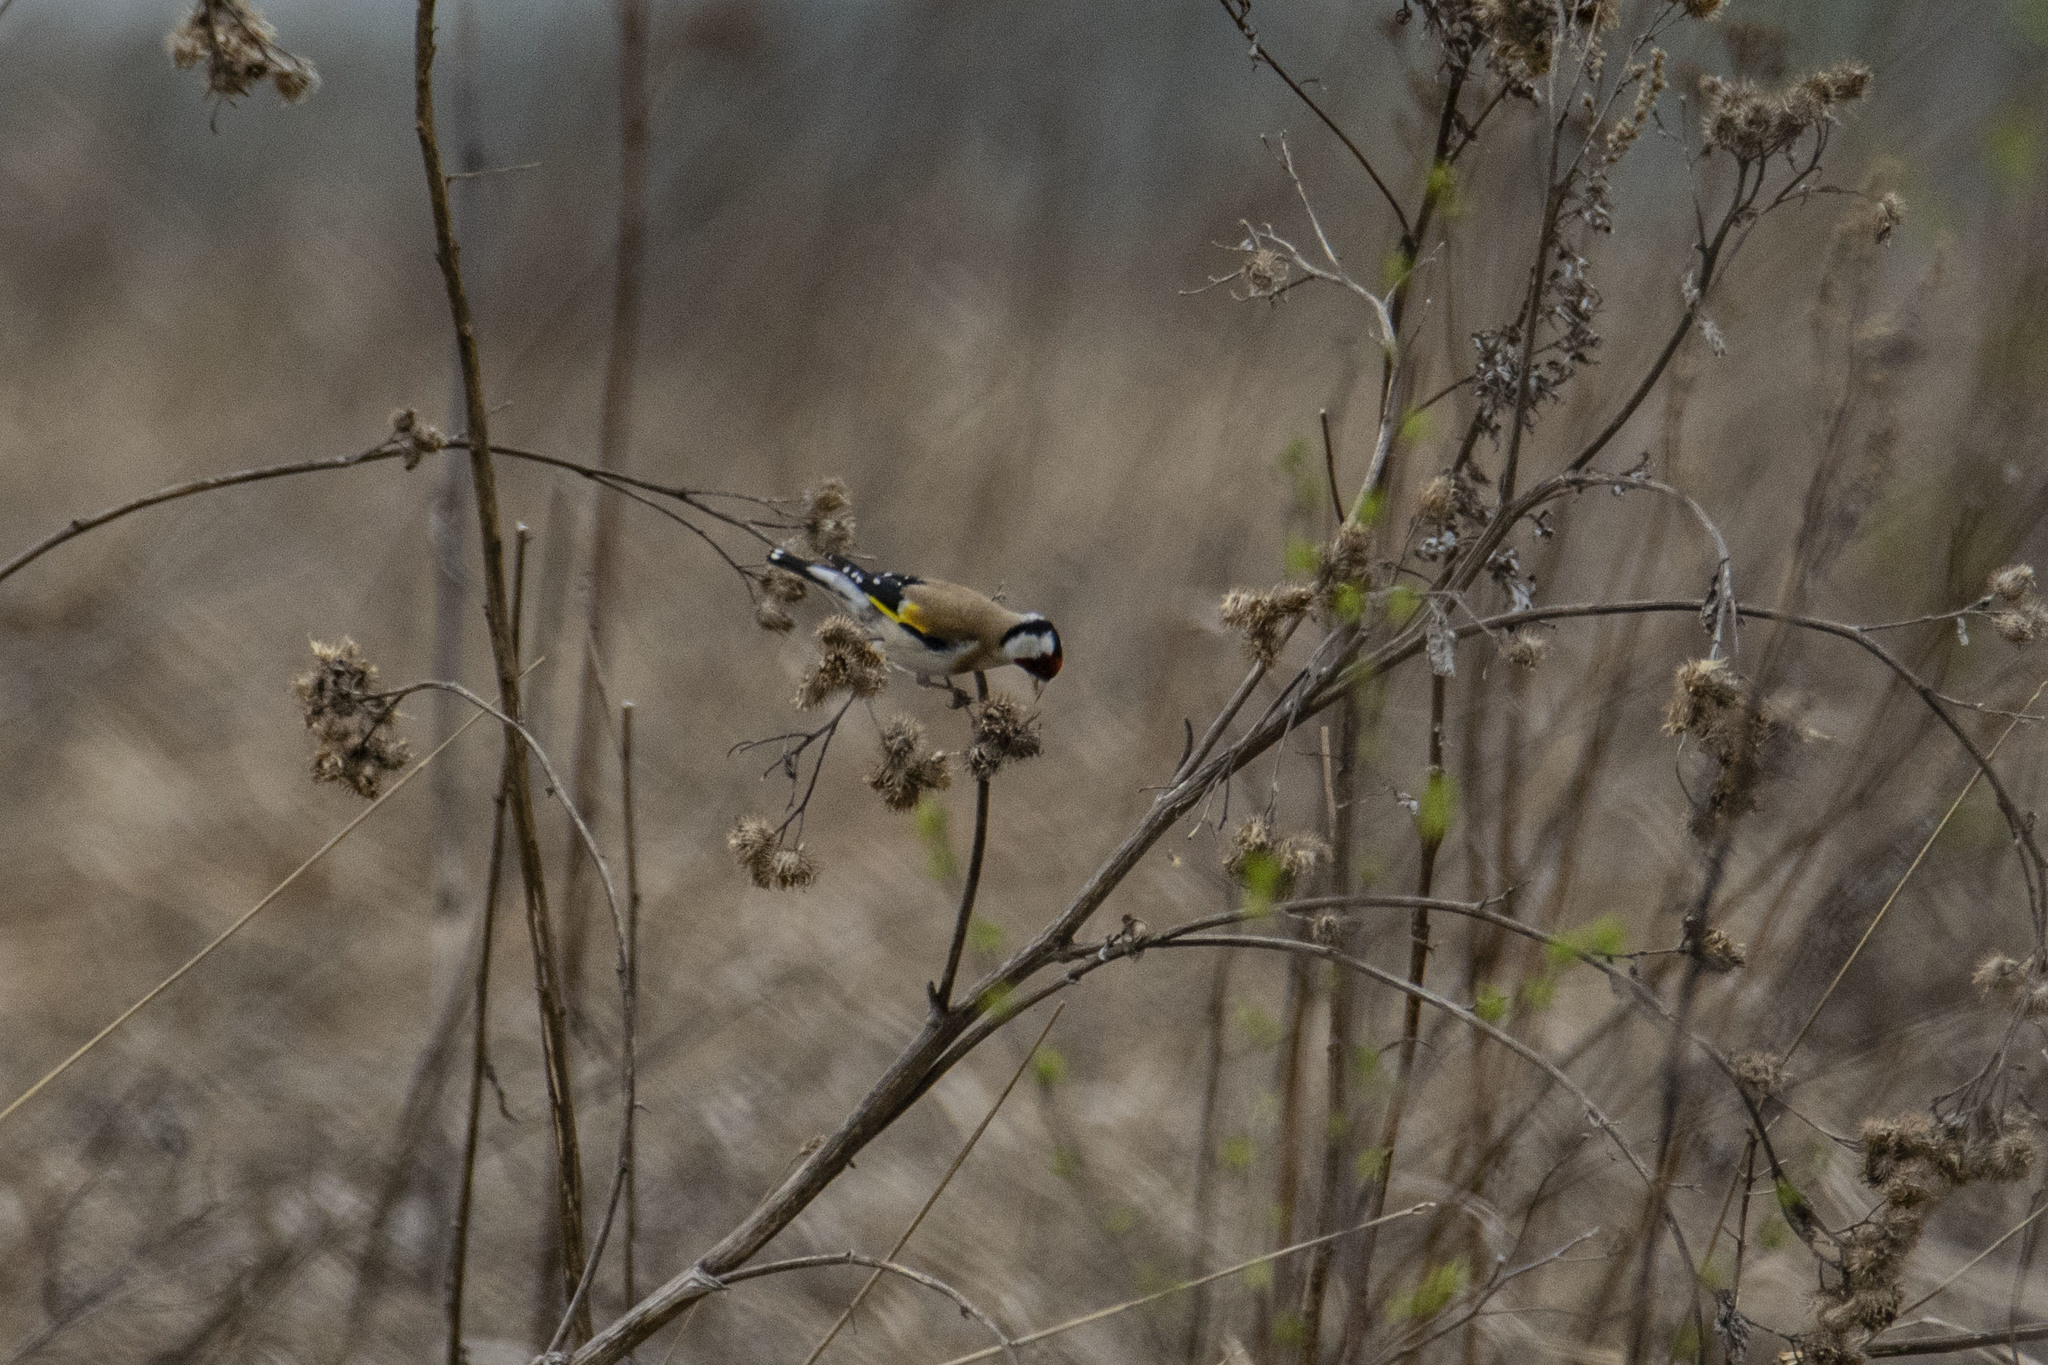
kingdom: Animalia
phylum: Chordata
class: Aves
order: Passeriformes
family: Fringillidae
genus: Carduelis
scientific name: Carduelis carduelis
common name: European goldfinch
